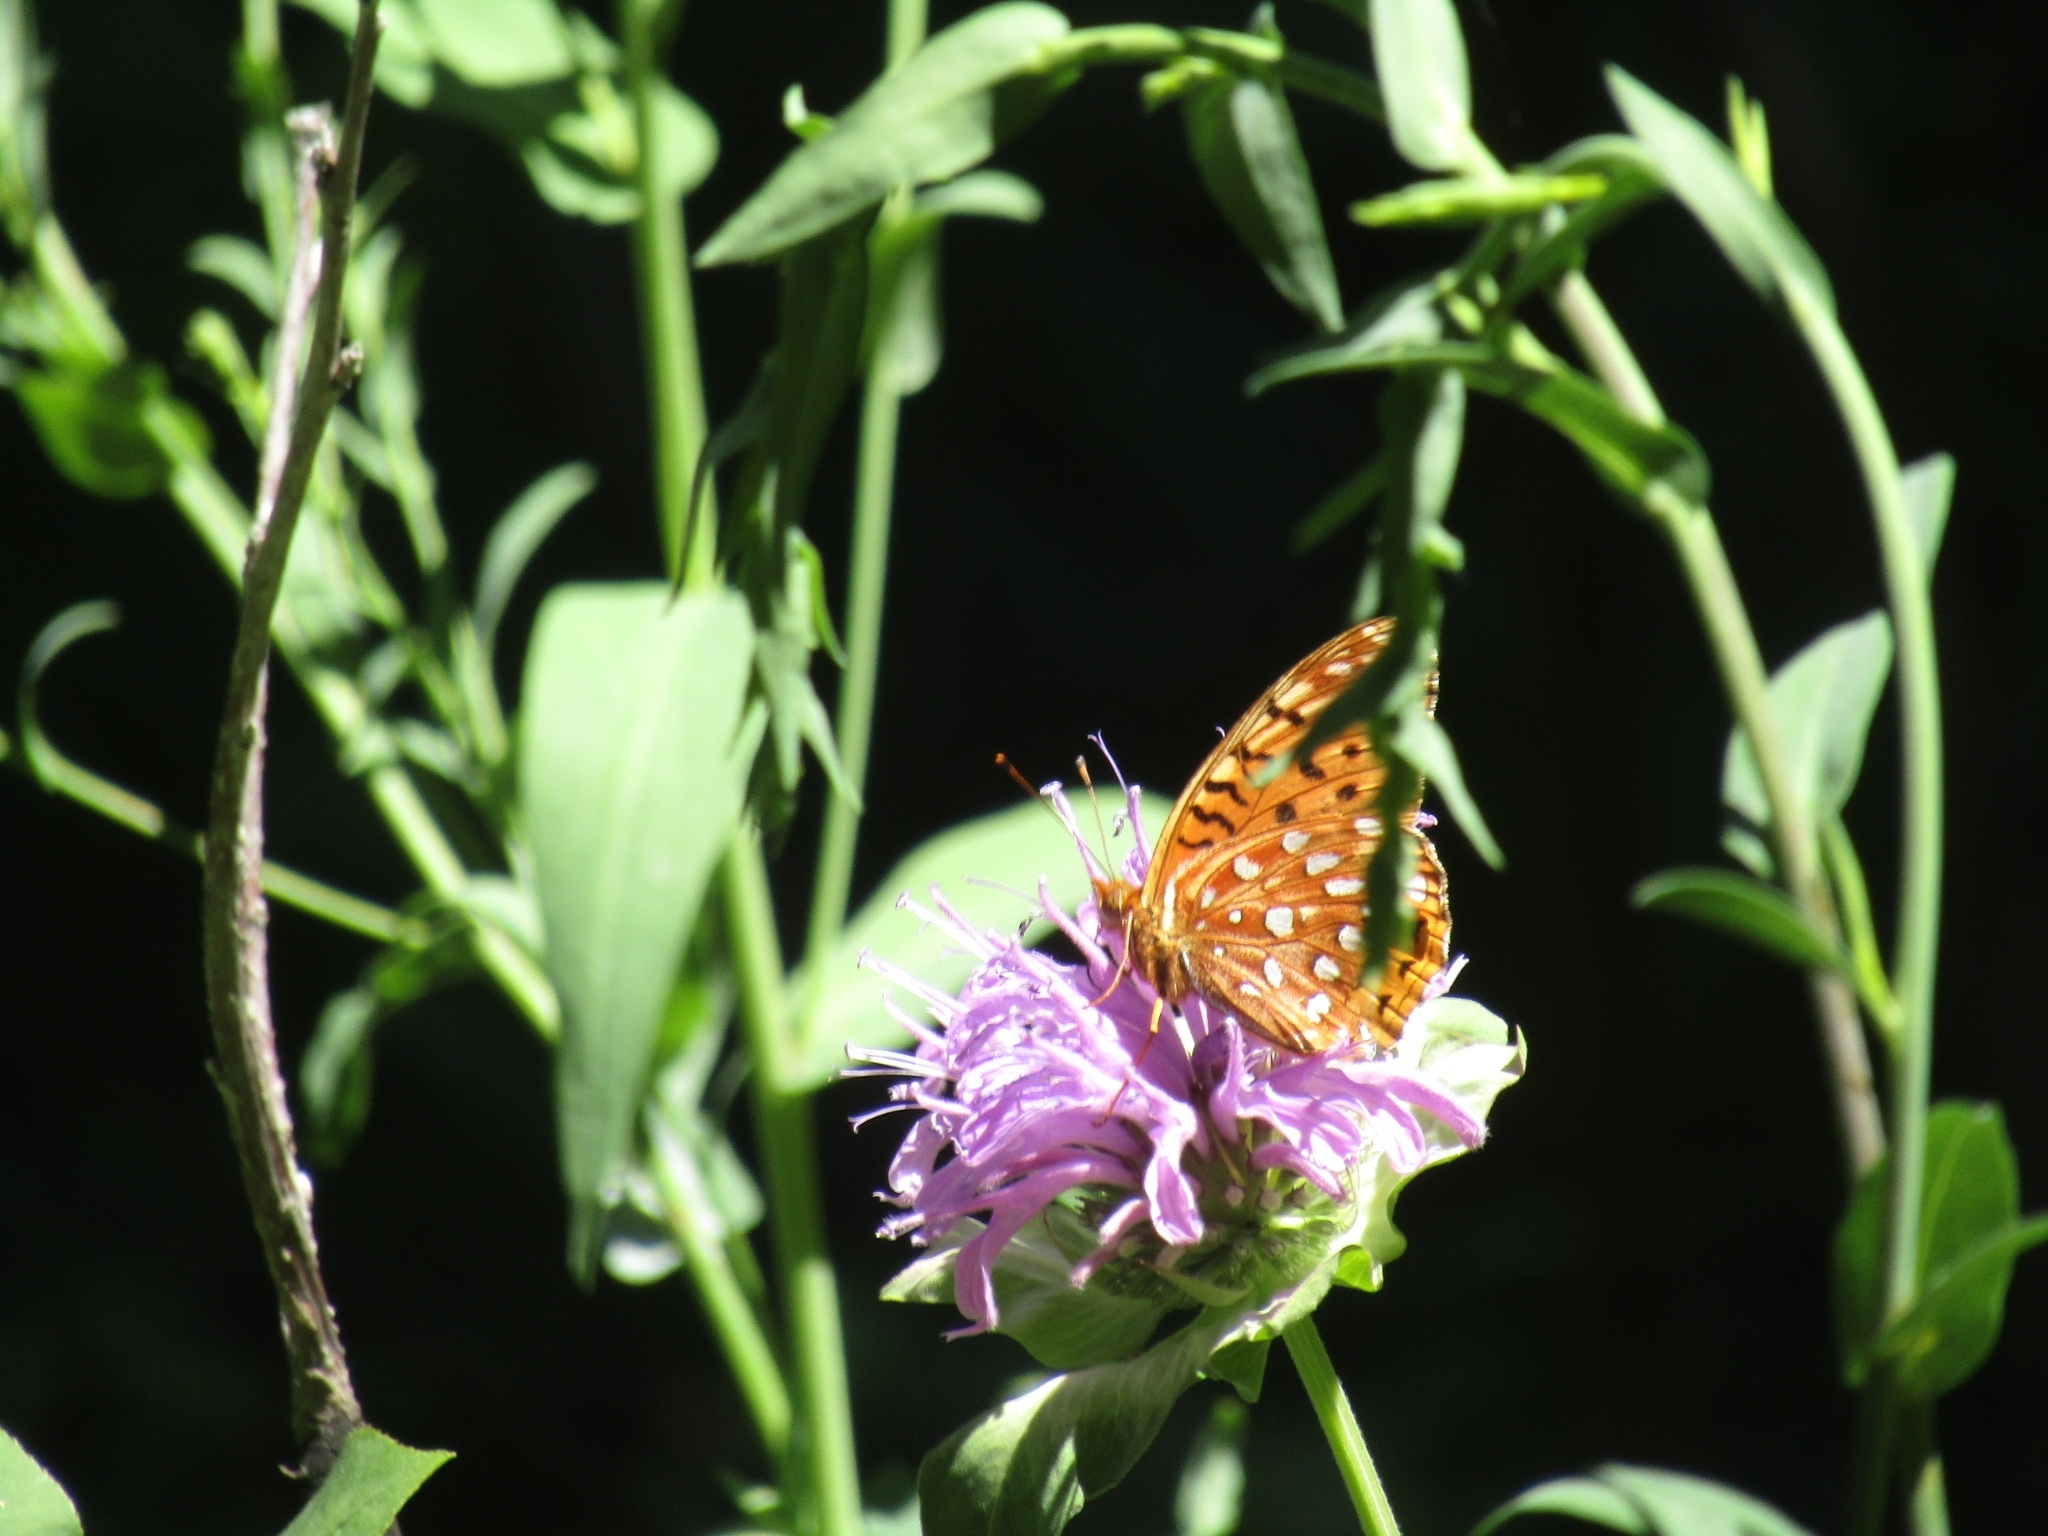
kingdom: Animalia
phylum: Arthropoda
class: Insecta
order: Lepidoptera
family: Nymphalidae
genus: Speyeria
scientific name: Speyeria aphrodite
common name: Aphrodite friitllary
